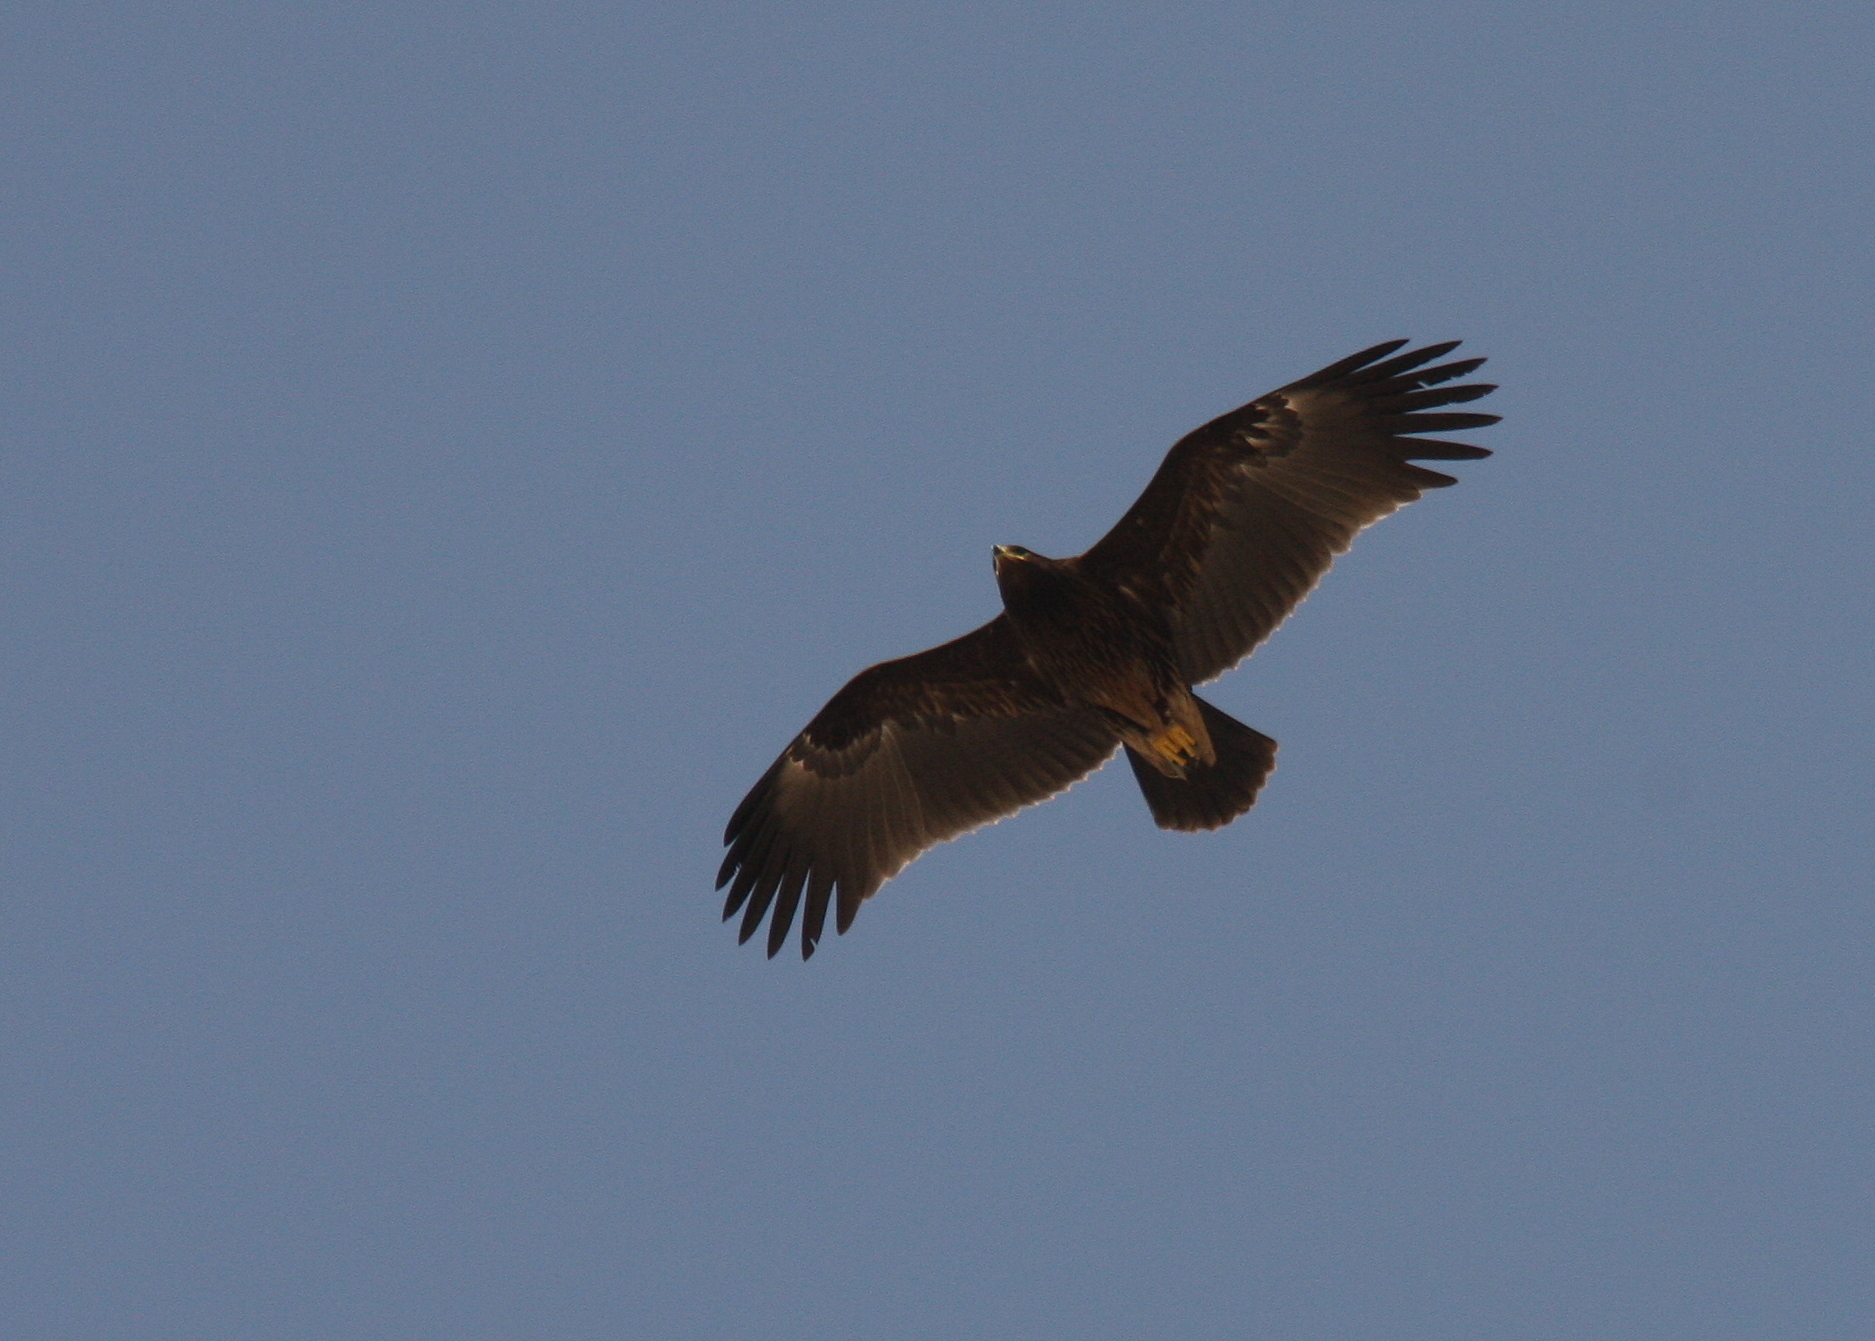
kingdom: Animalia
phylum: Chordata
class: Aves
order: Accipitriformes
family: Accipitridae
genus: Aquila
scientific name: Aquila clanga
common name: Greater spotted eagle
